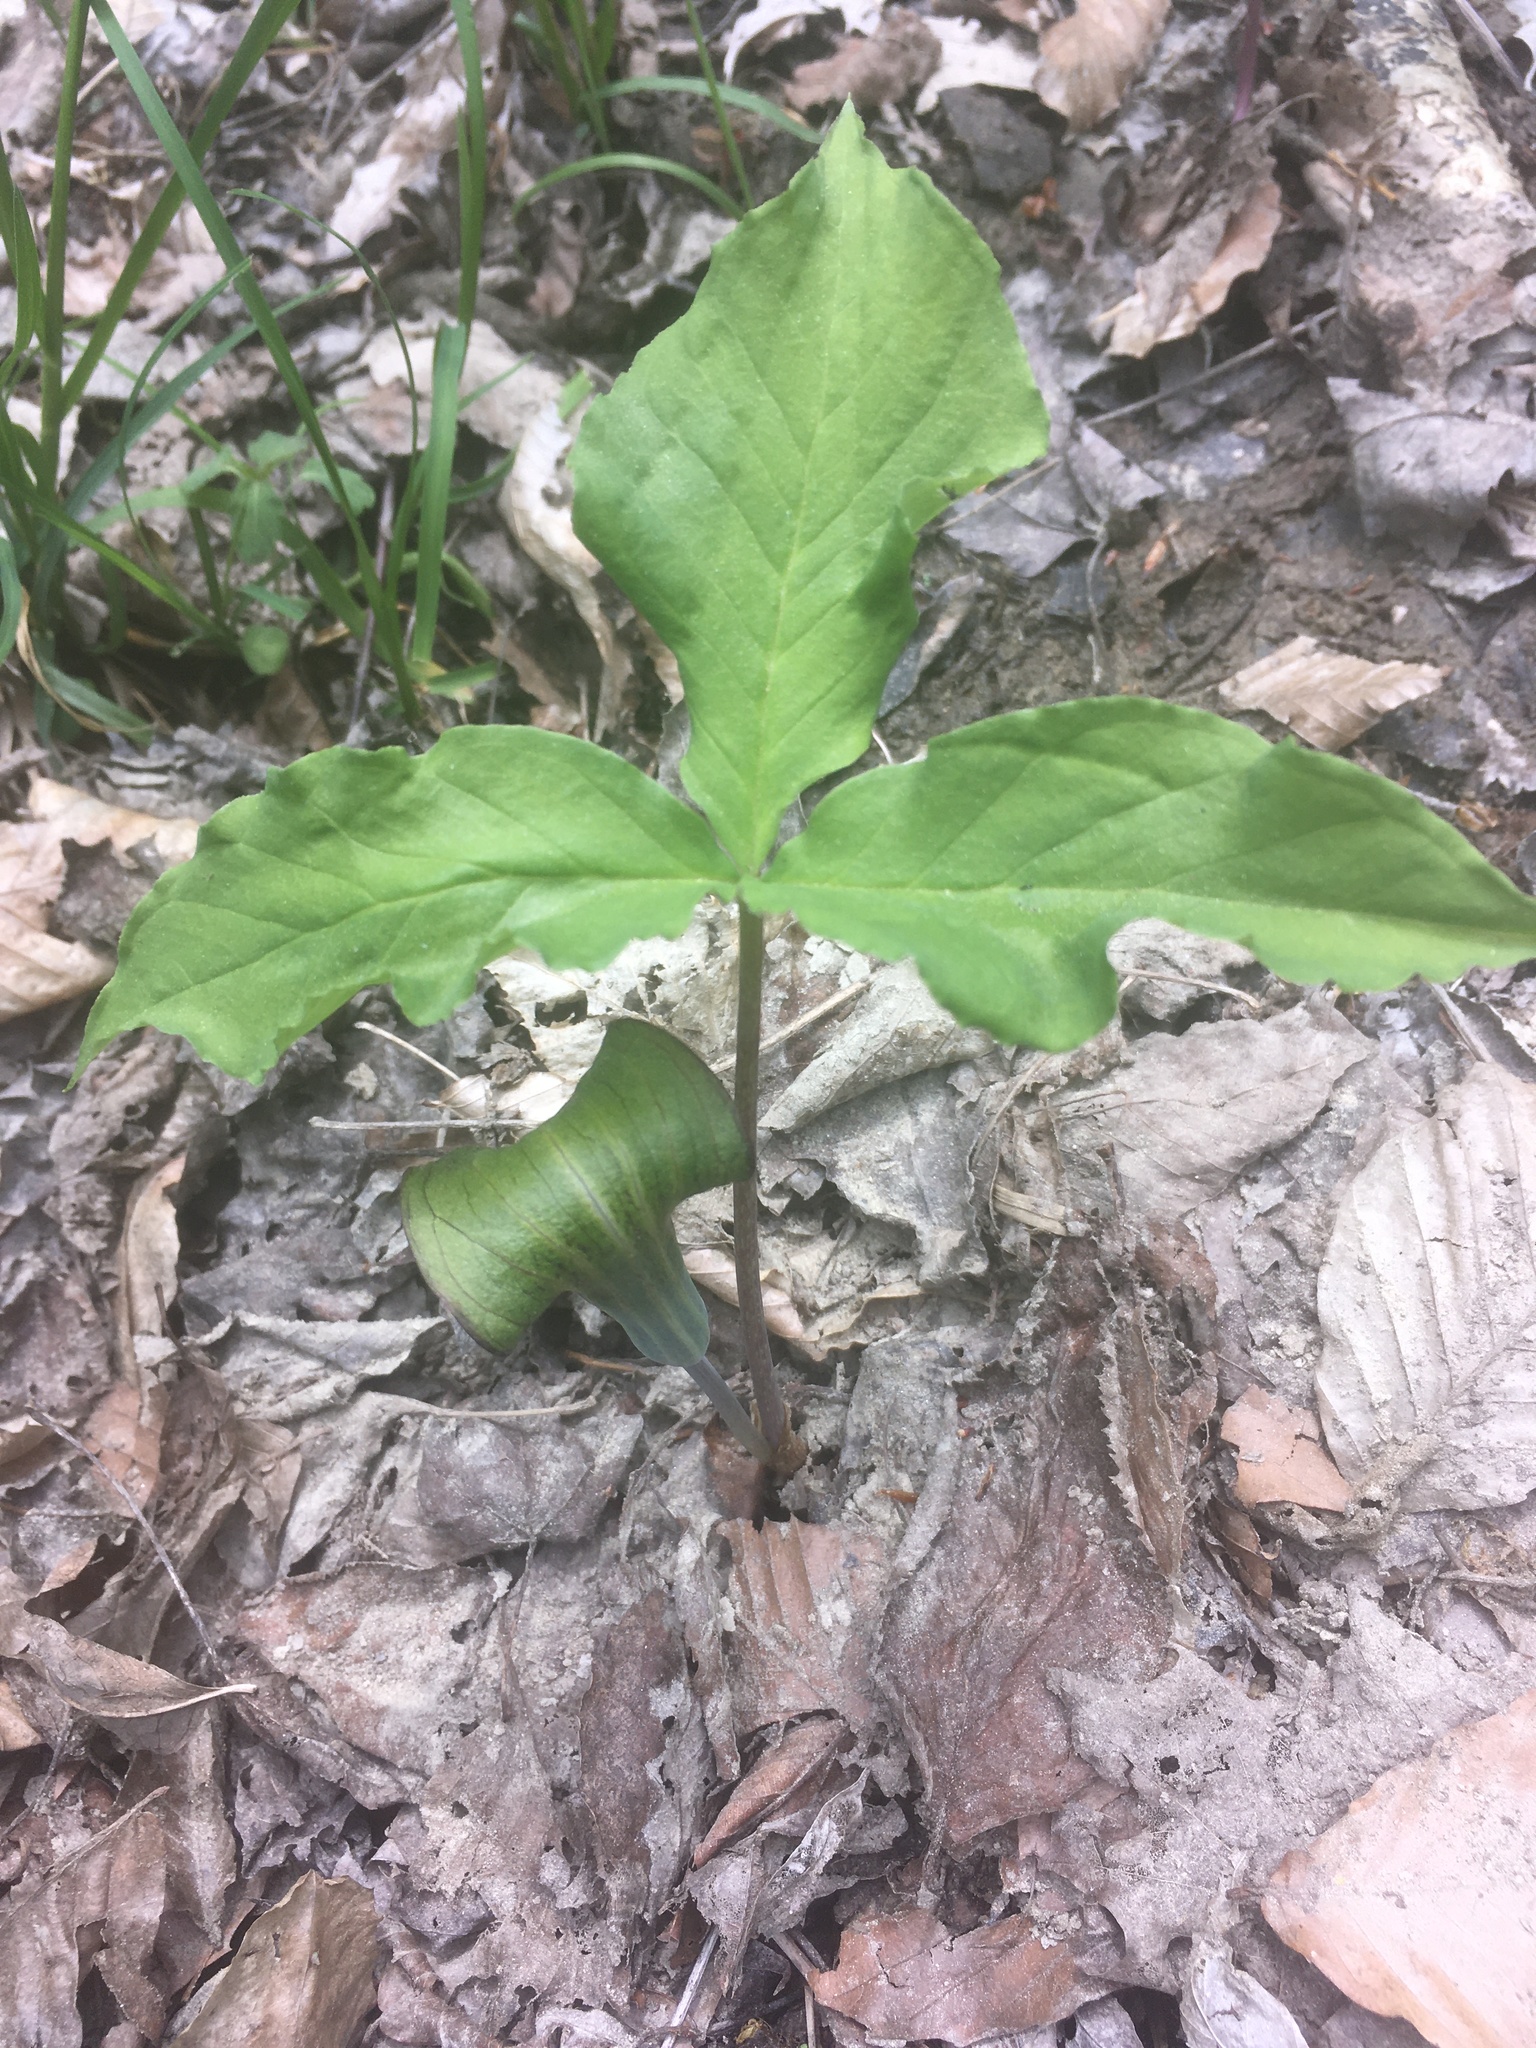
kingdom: Plantae
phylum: Tracheophyta
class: Liliopsida
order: Alismatales
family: Araceae
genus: Arisaema
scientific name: Arisaema triphyllum
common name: Jack-in-the-pulpit
